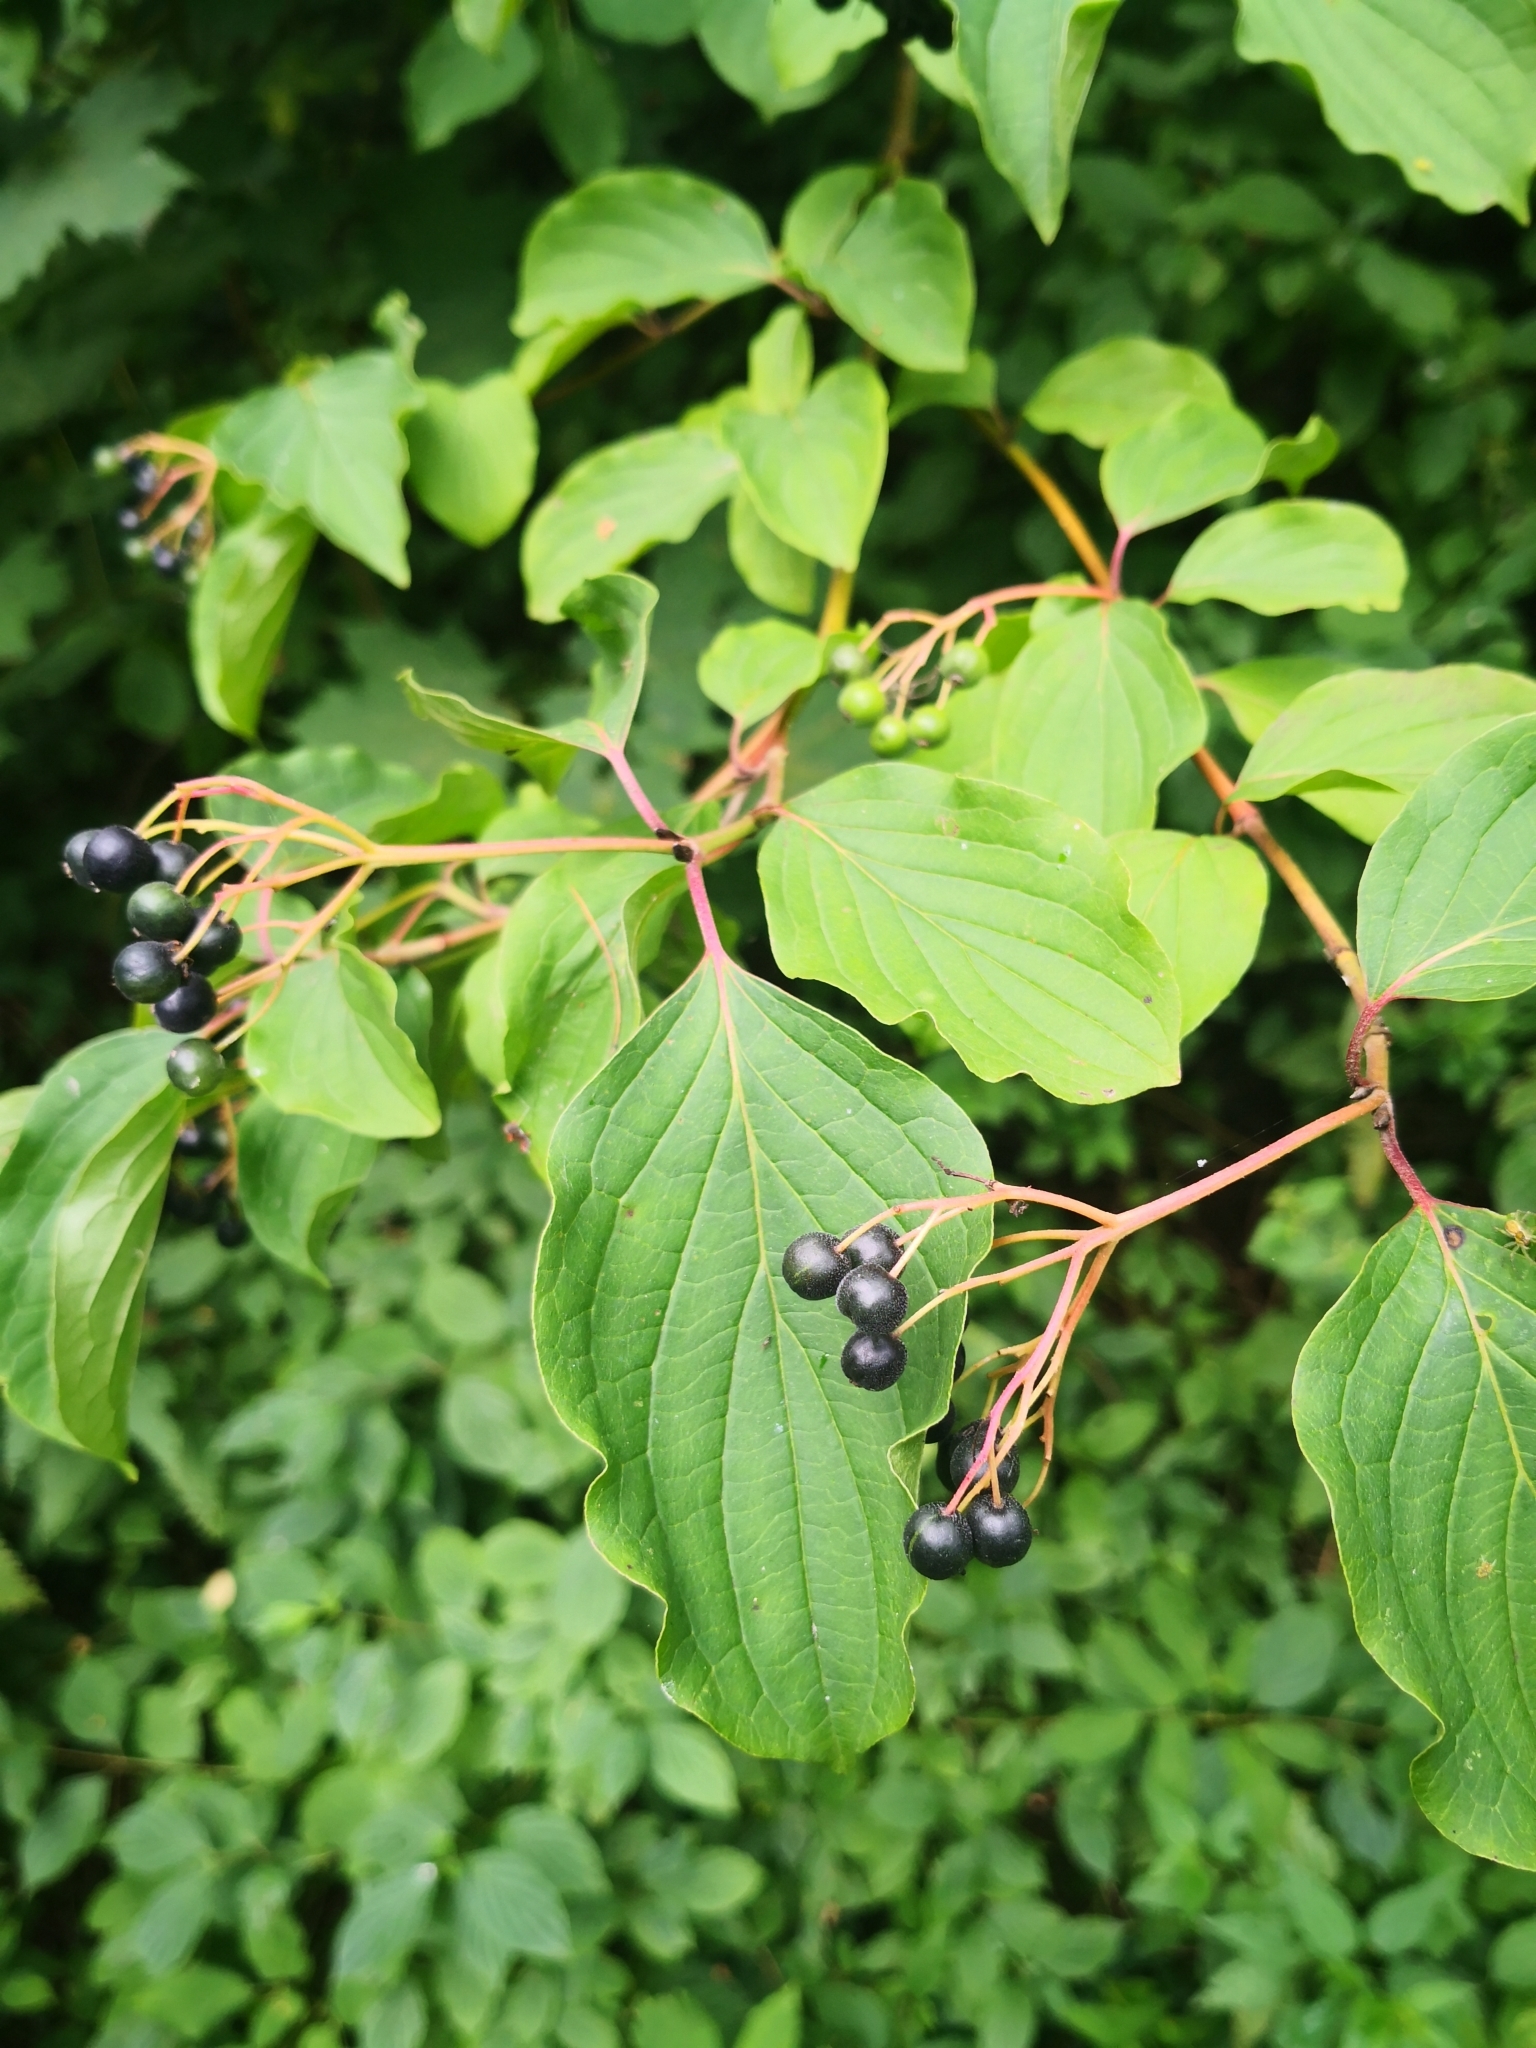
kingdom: Plantae
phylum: Tracheophyta
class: Magnoliopsida
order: Cornales
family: Cornaceae
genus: Cornus
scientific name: Cornus sanguinea
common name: Dogwood
